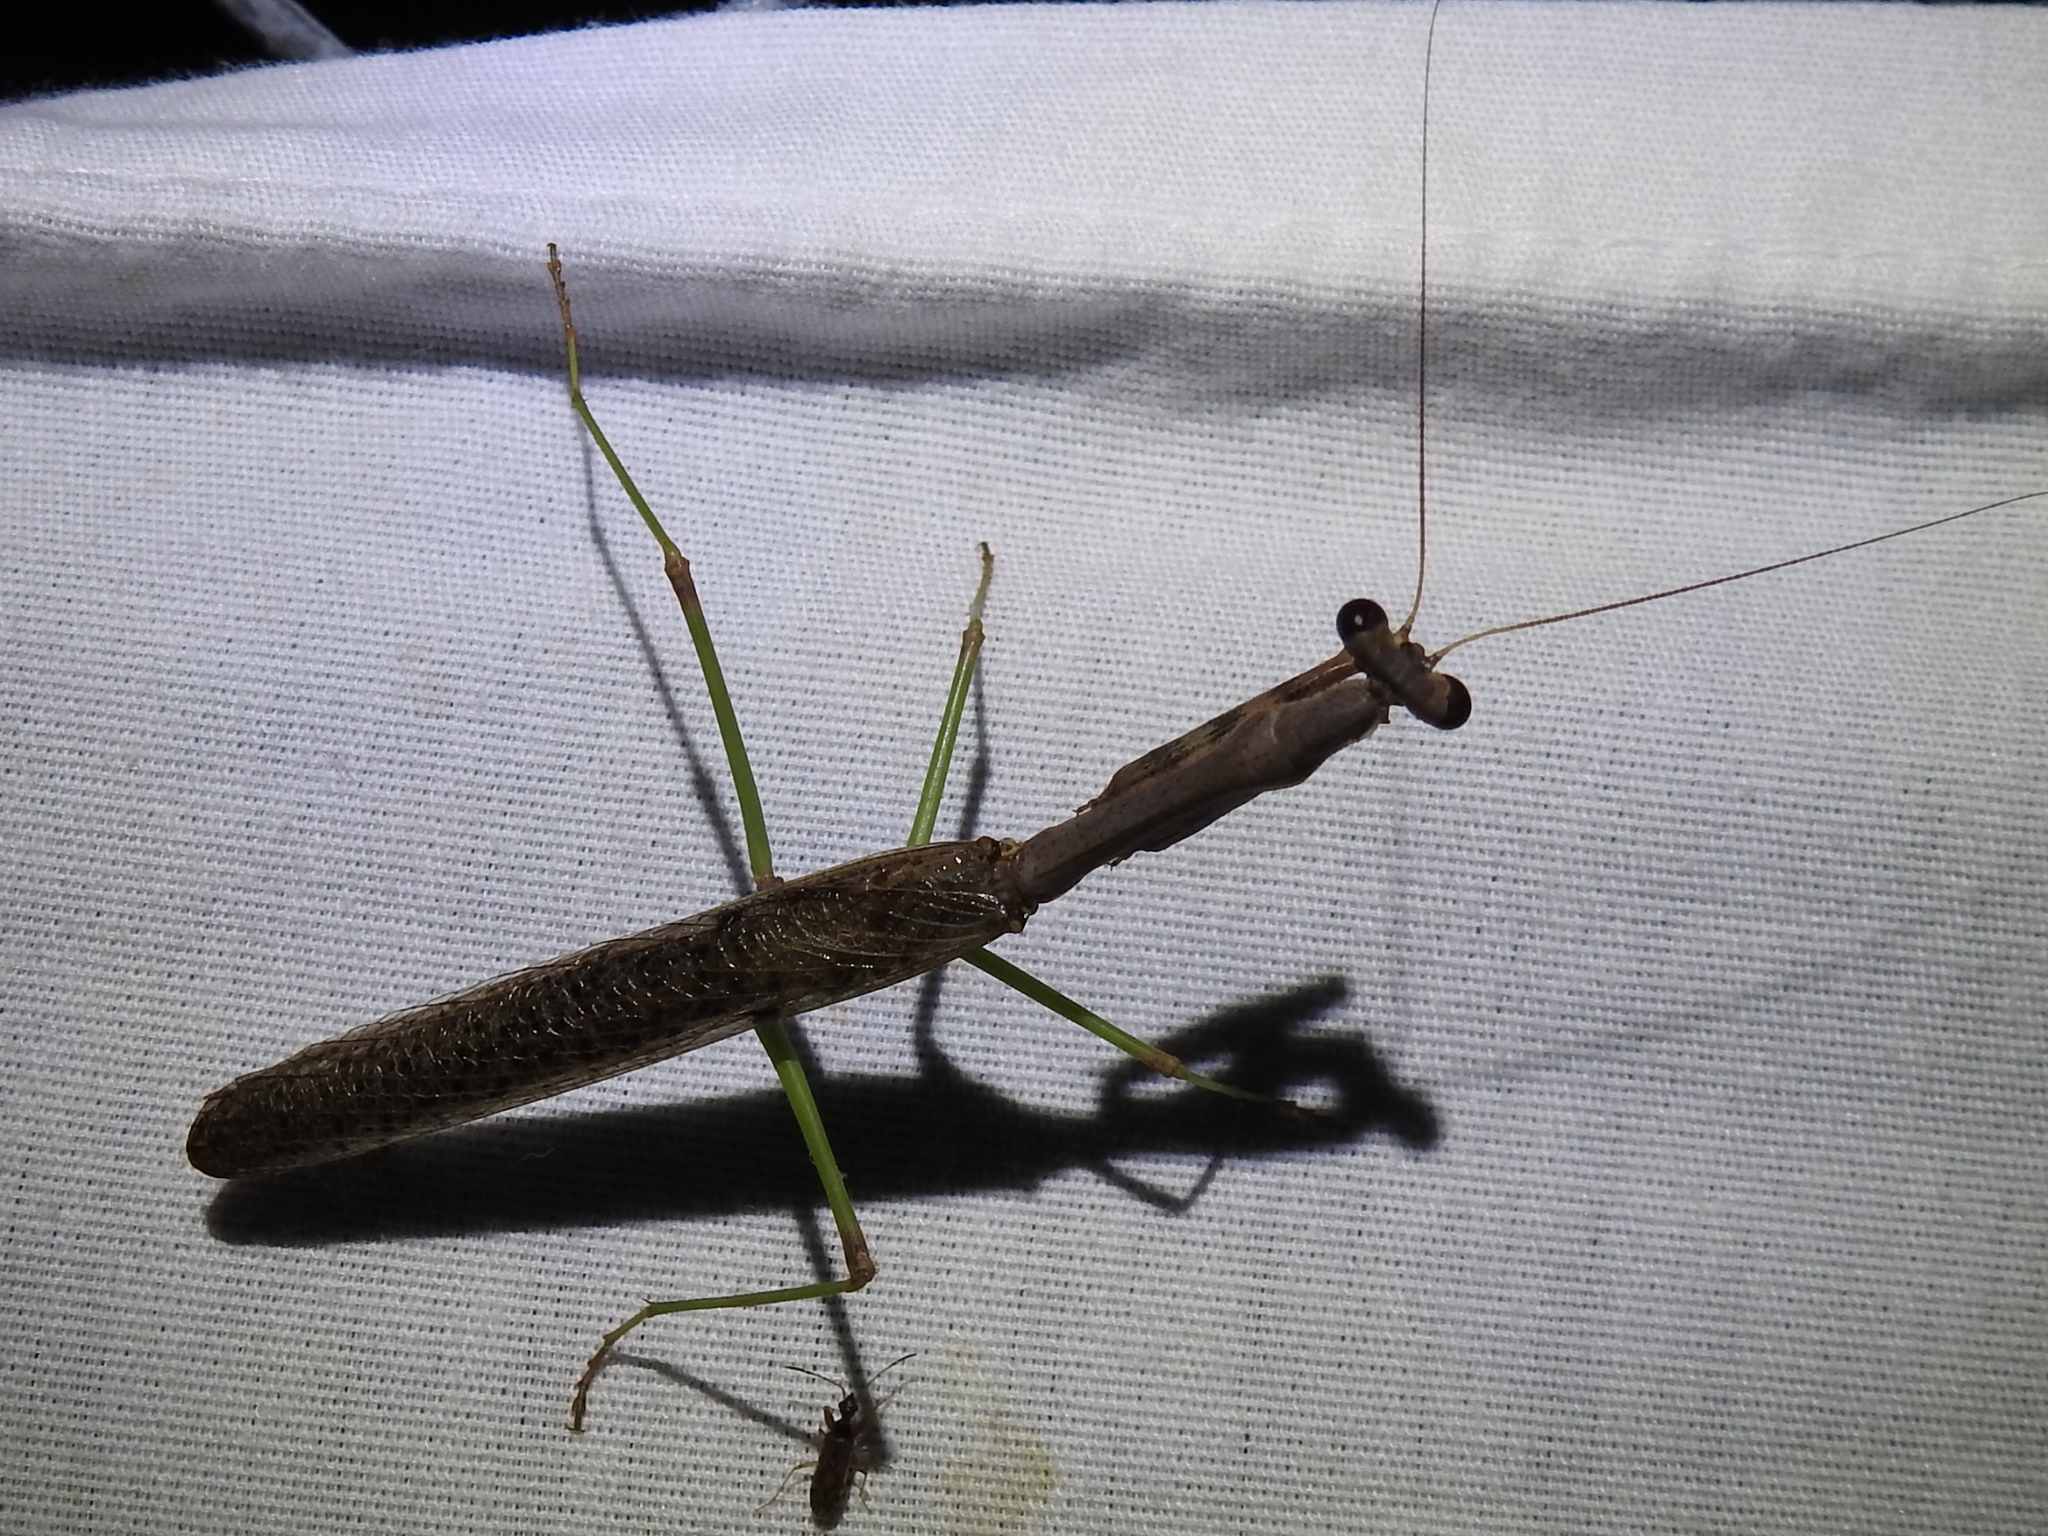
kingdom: Animalia
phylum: Arthropoda
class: Insecta
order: Mantodea
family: Mantidae
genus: Stagmomantis
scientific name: Stagmomantis carolina
